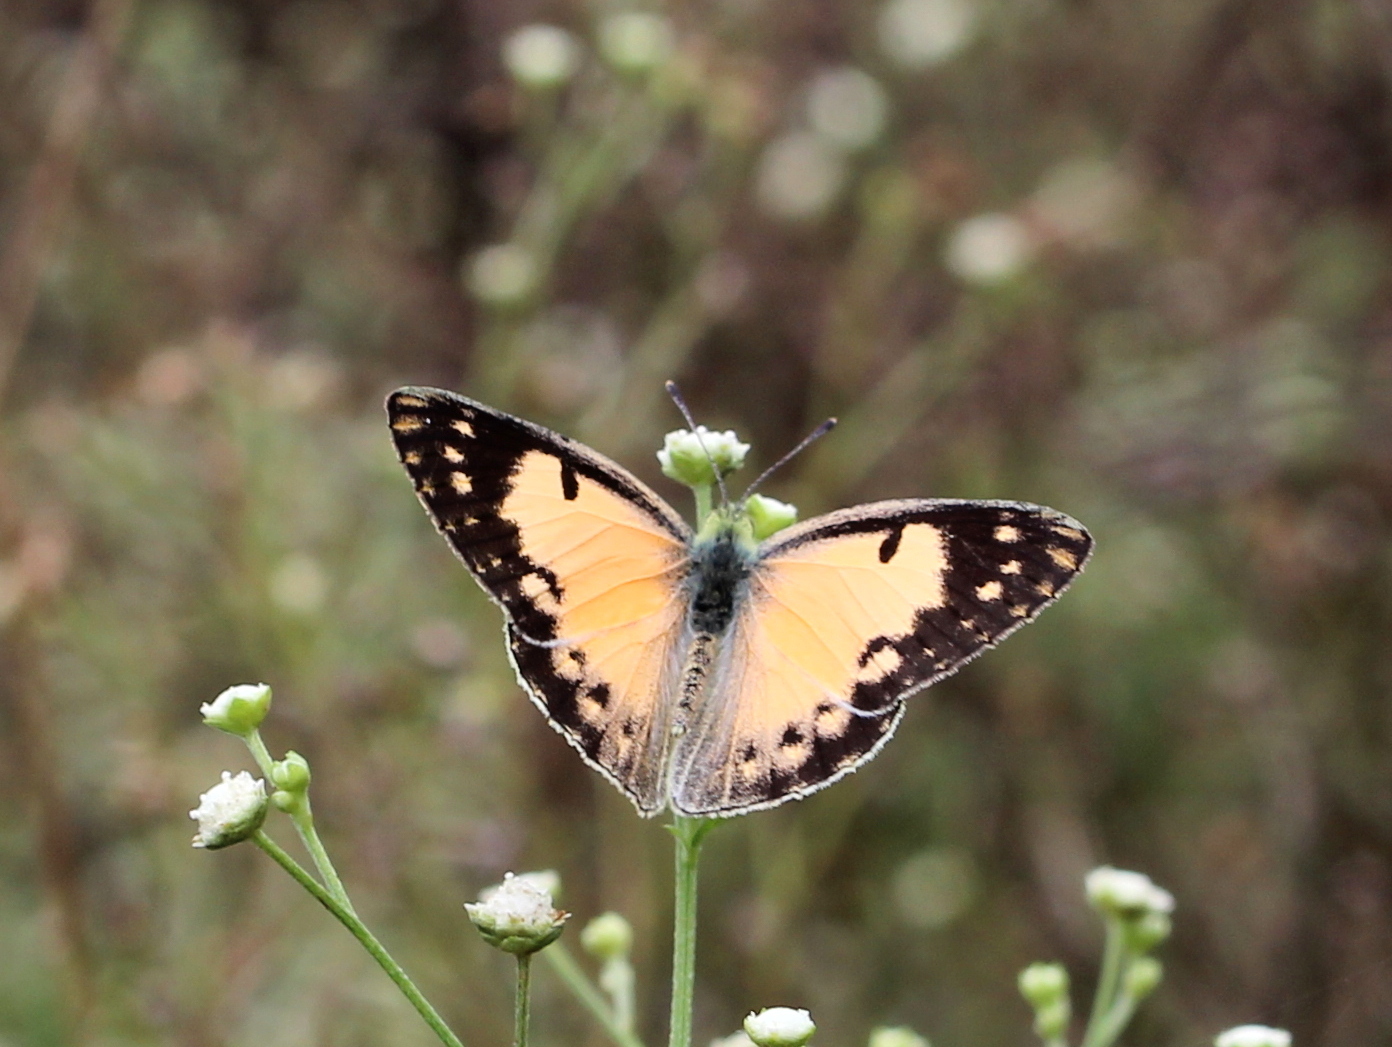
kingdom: Animalia
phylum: Arthropoda
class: Insecta
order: Lepidoptera
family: Pieridae
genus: Colotis
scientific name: Colotis amata
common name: Small salmon arab
